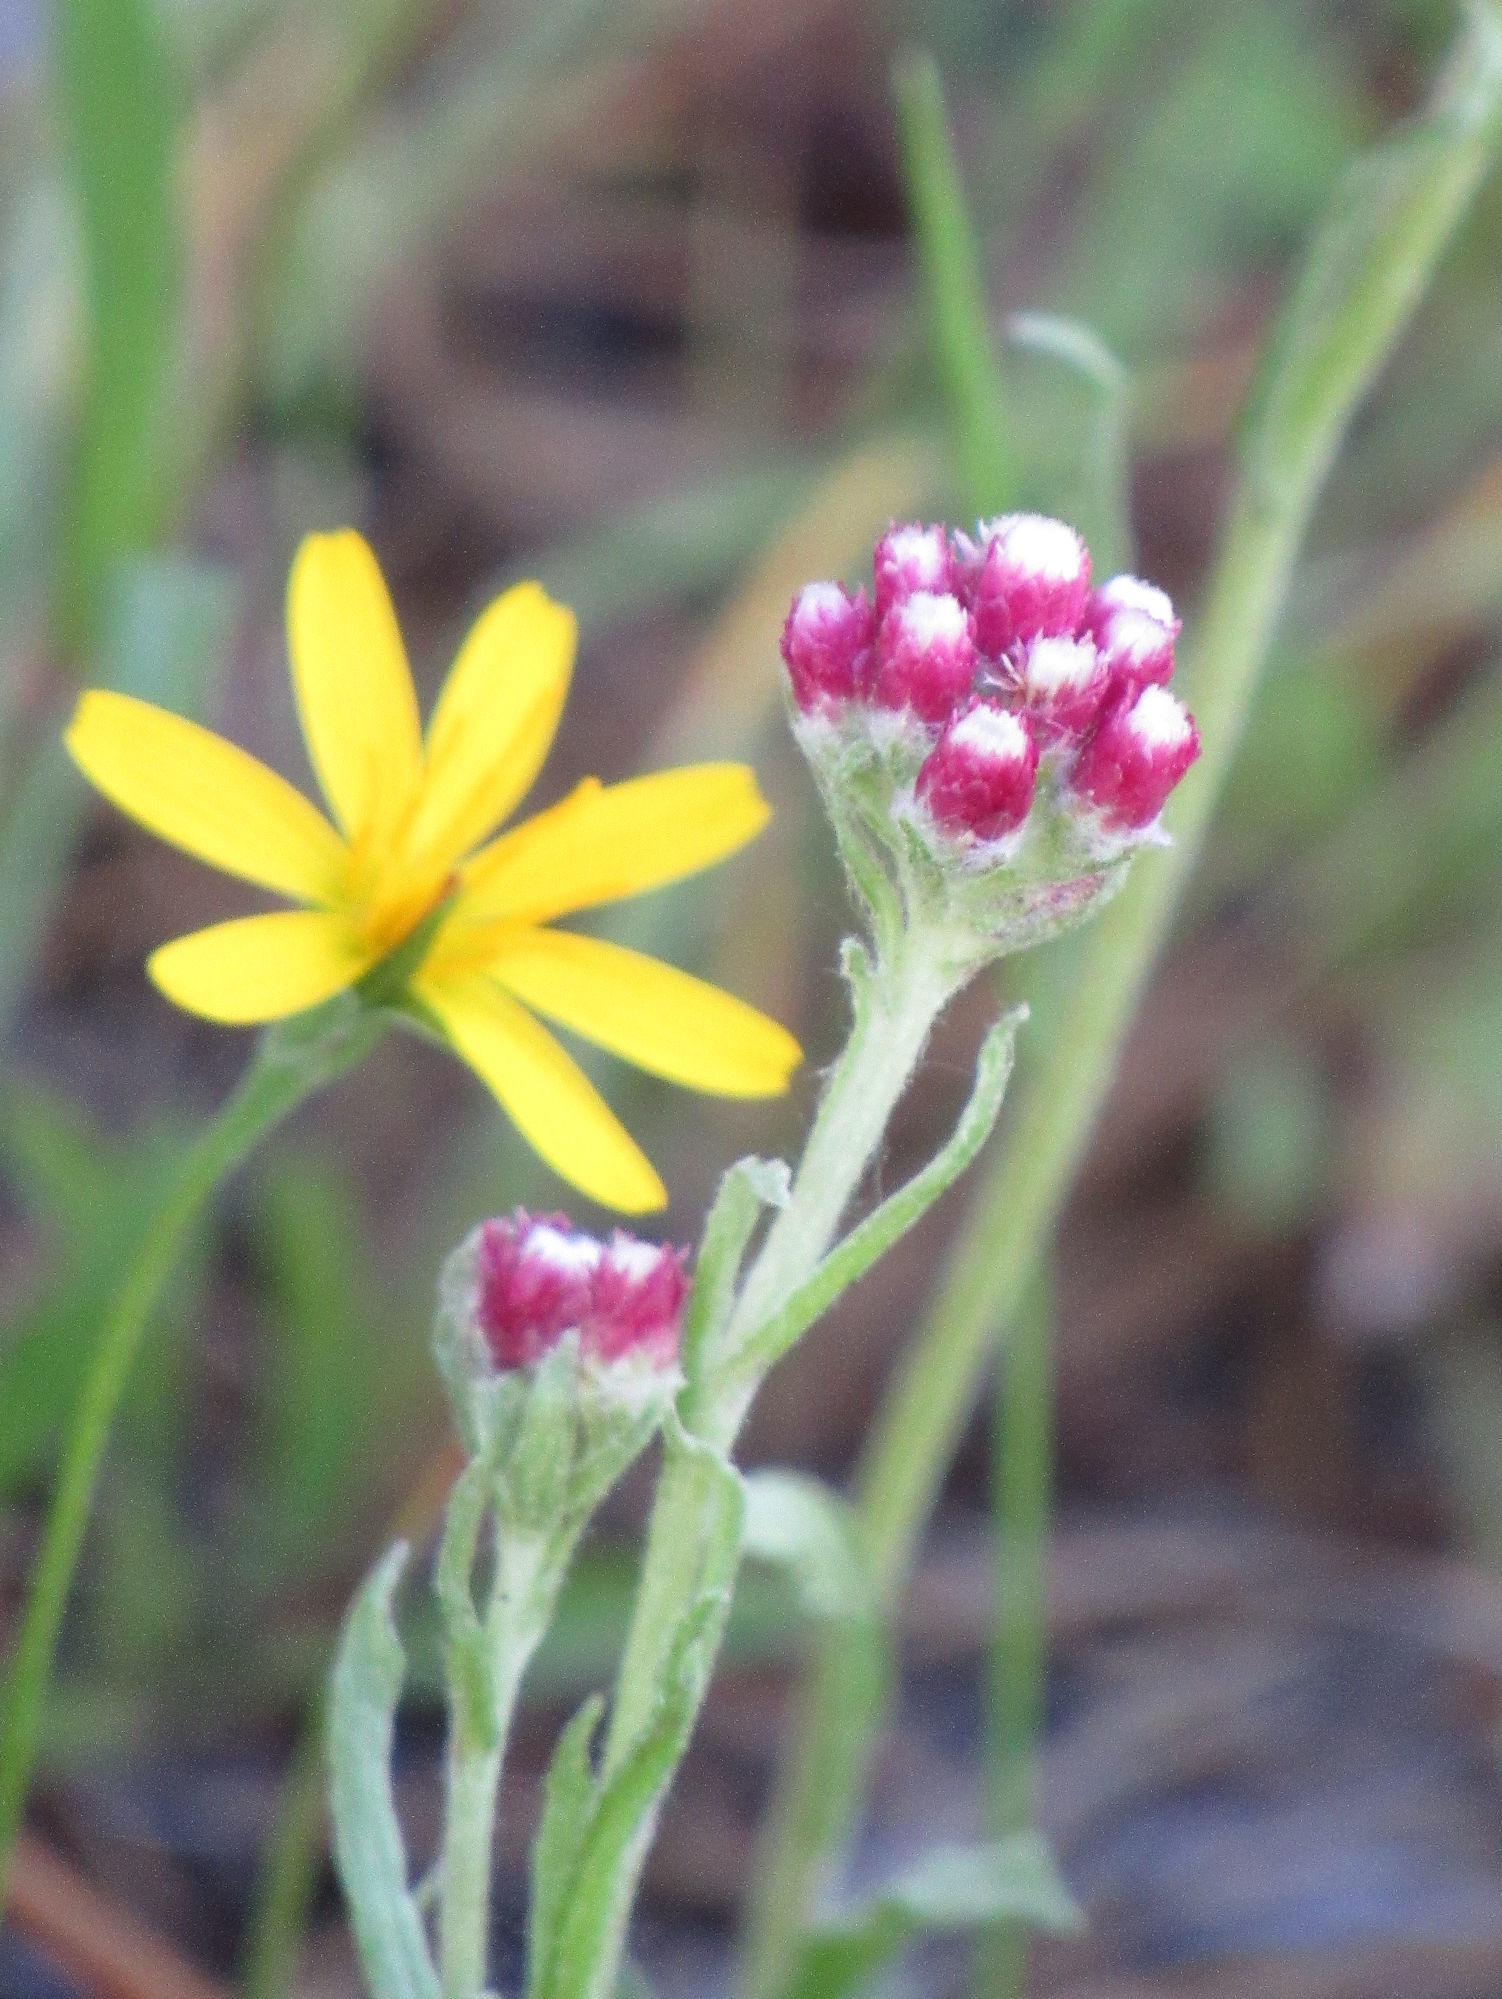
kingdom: Plantae
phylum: Tracheophyta
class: Magnoliopsida
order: Asterales
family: Asteraceae
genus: Antennaria
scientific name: Antennaria rosea
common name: Rosy pussytoes
